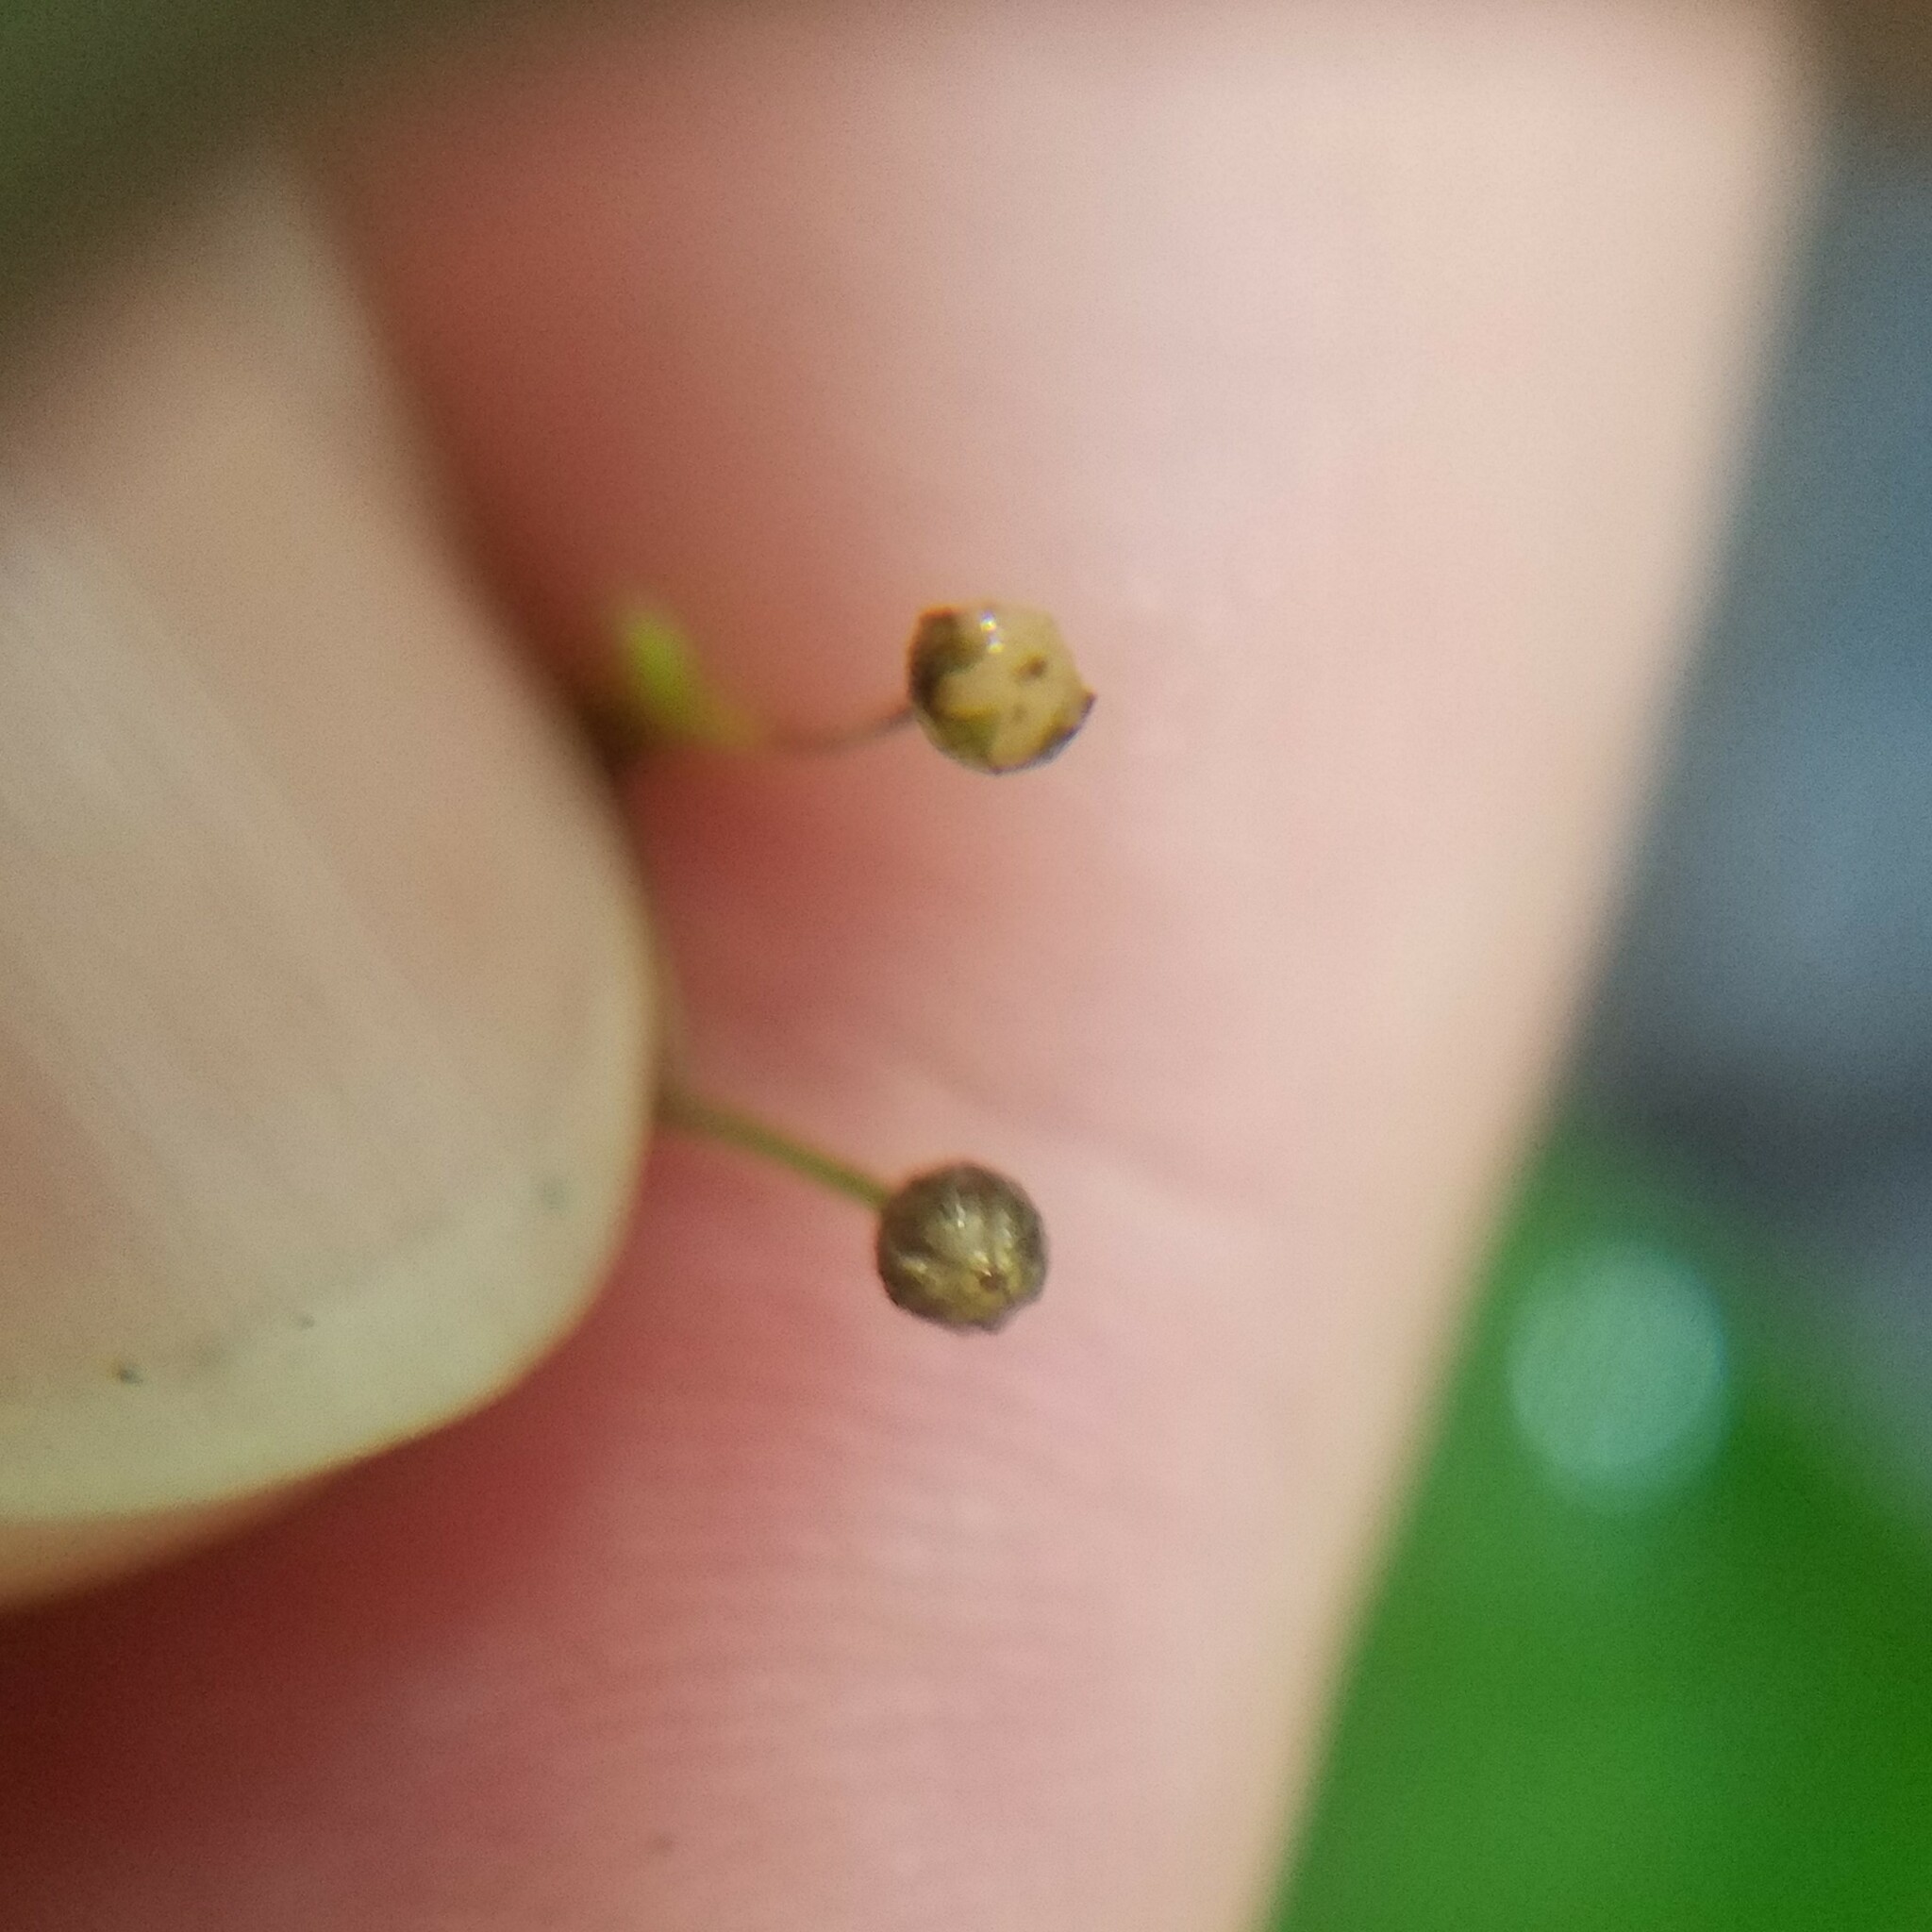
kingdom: Plantae
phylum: Tracheophyta
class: Magnoliopsida
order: Ericales
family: Primulaceae
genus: Samolus
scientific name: Samolus parviflorus
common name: False water pimpernel
